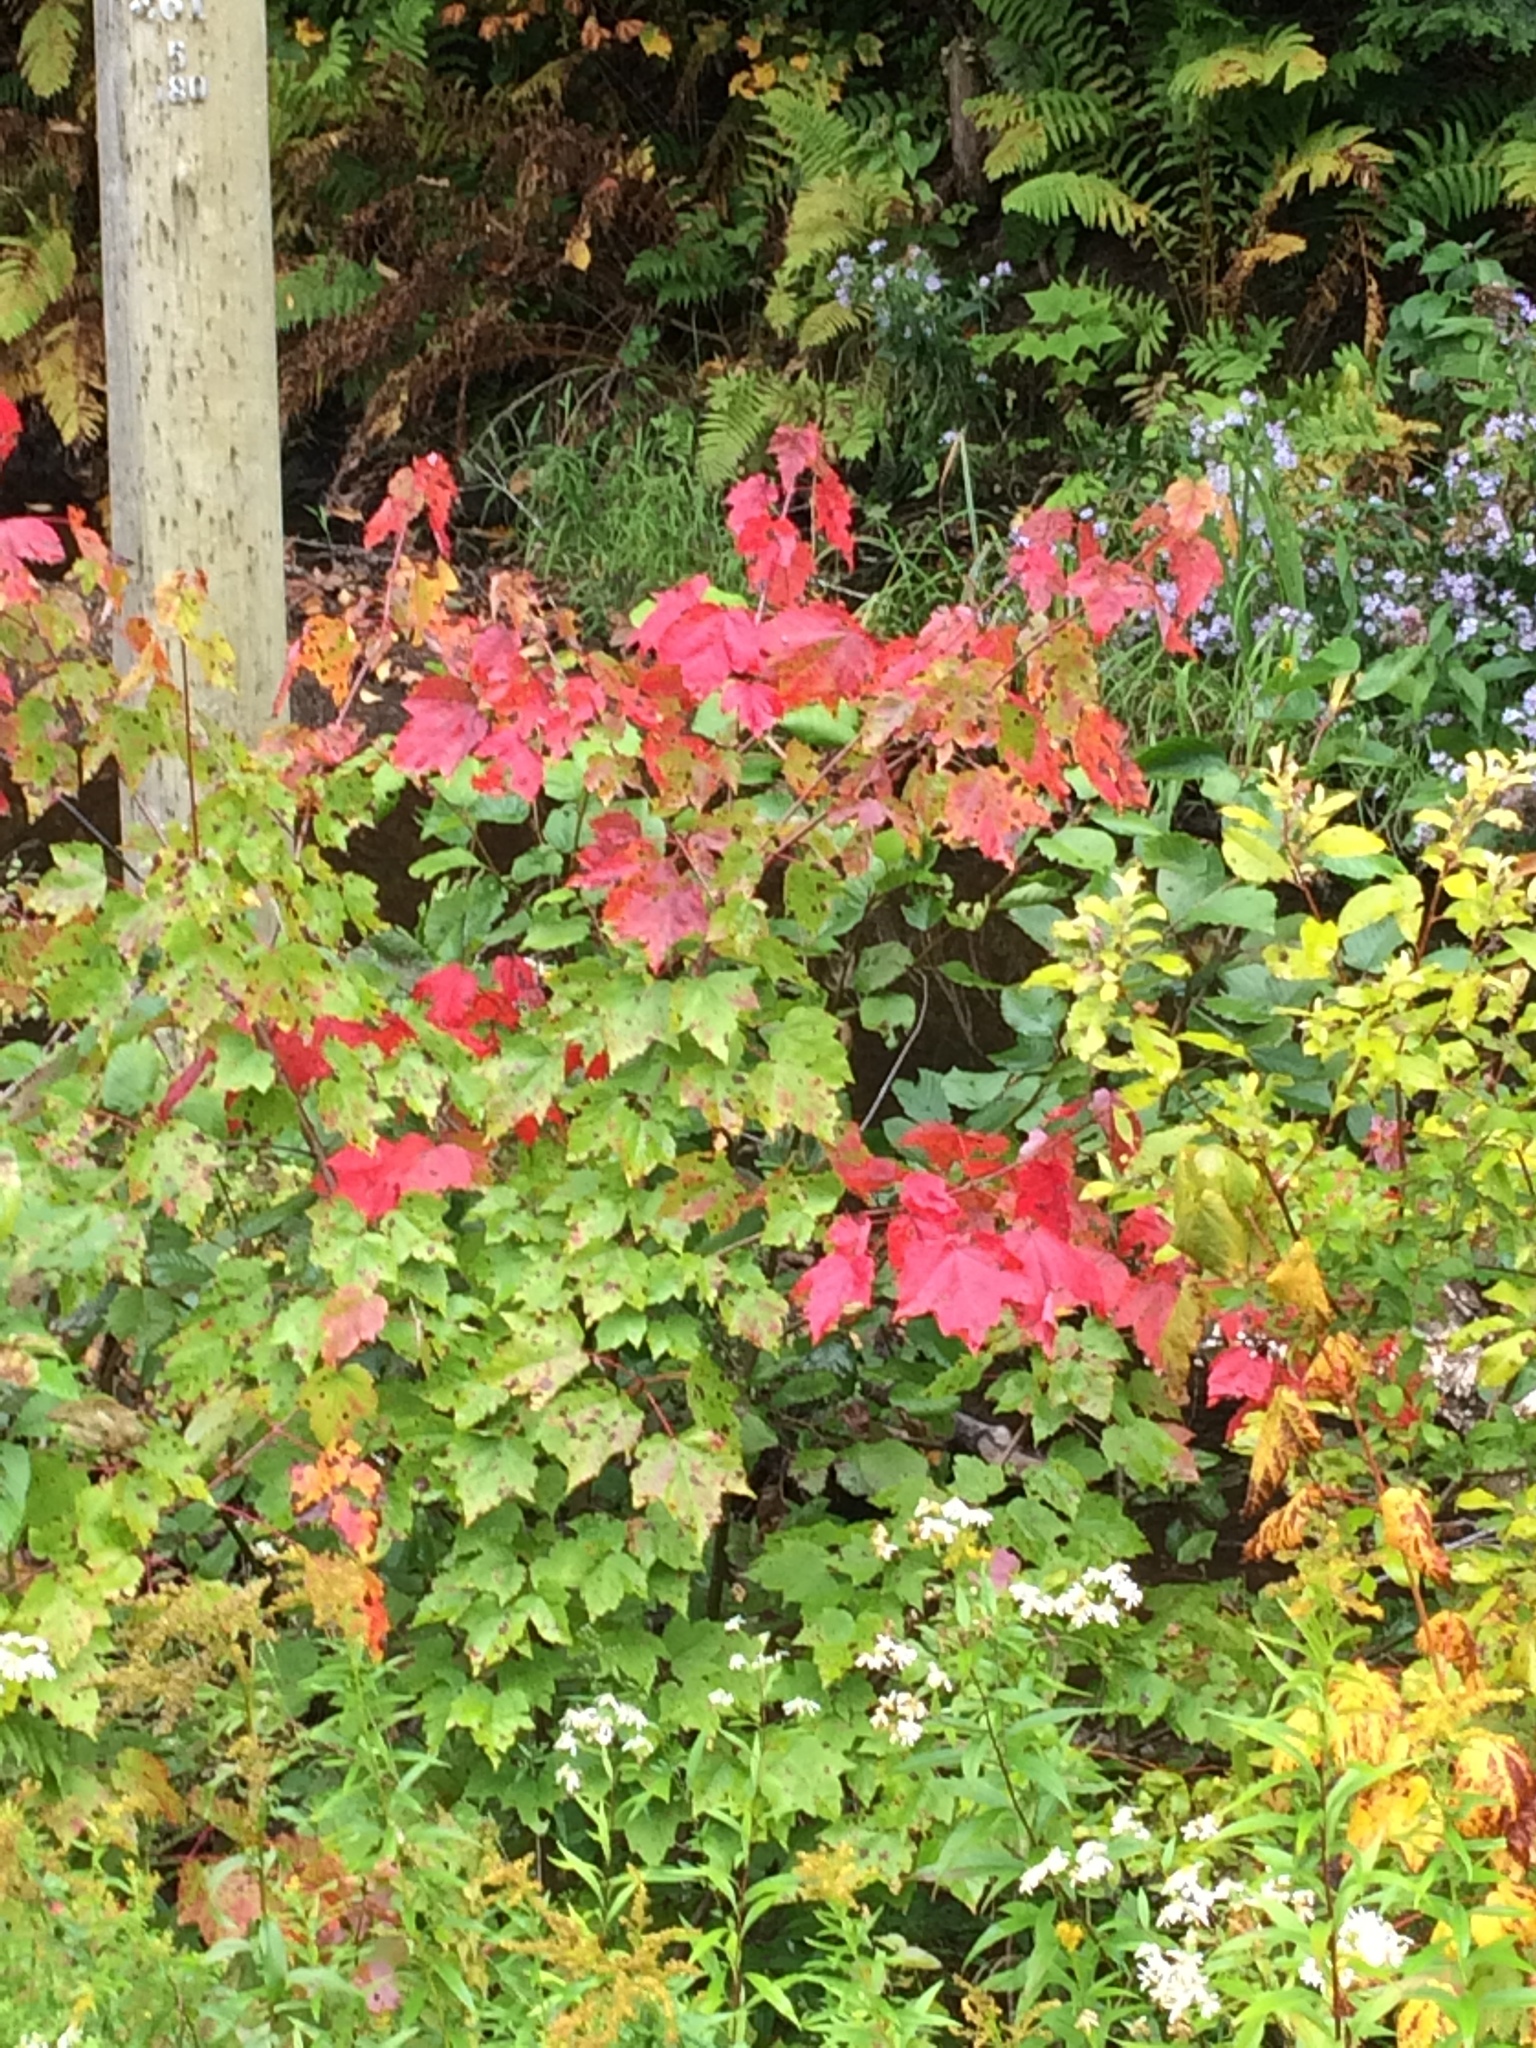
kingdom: Plantae
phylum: Tracheophyta
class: Magnoliopsida
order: Sapindales
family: Sapindaceae
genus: Acer
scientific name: Acer rubrum
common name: Red maple
